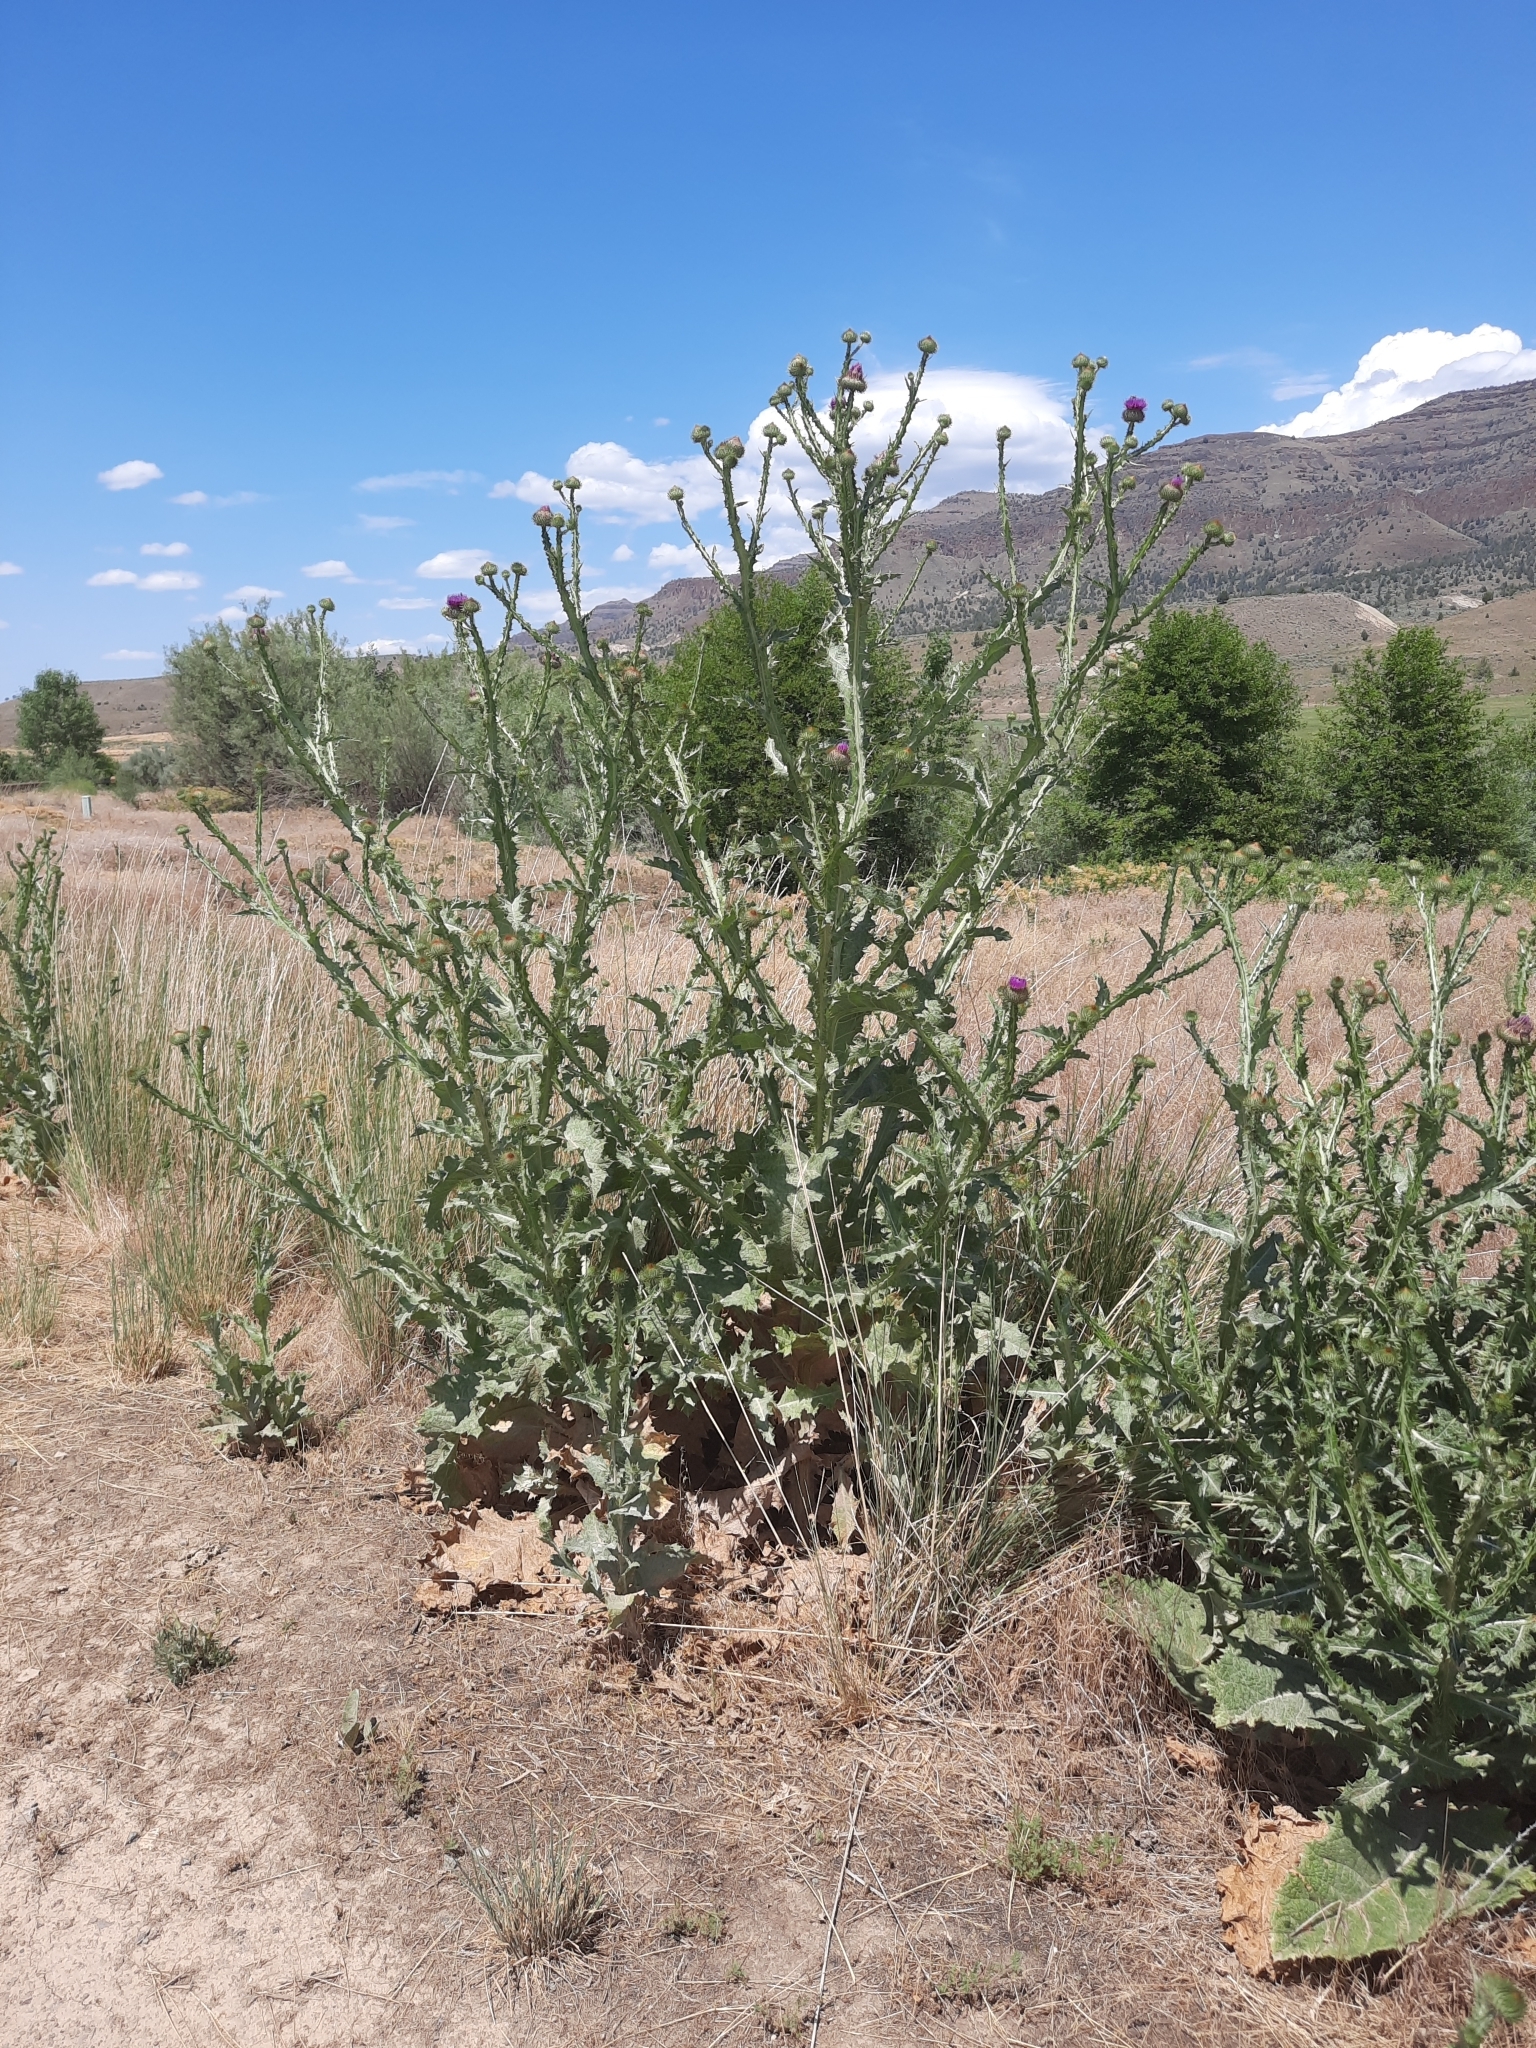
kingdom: Plantae
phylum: Tracheophyta
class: Magnoliopsida
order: Asterales
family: Asteraceae
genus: Onopordum
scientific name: Onopordum acanthium
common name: Scotch thistle
